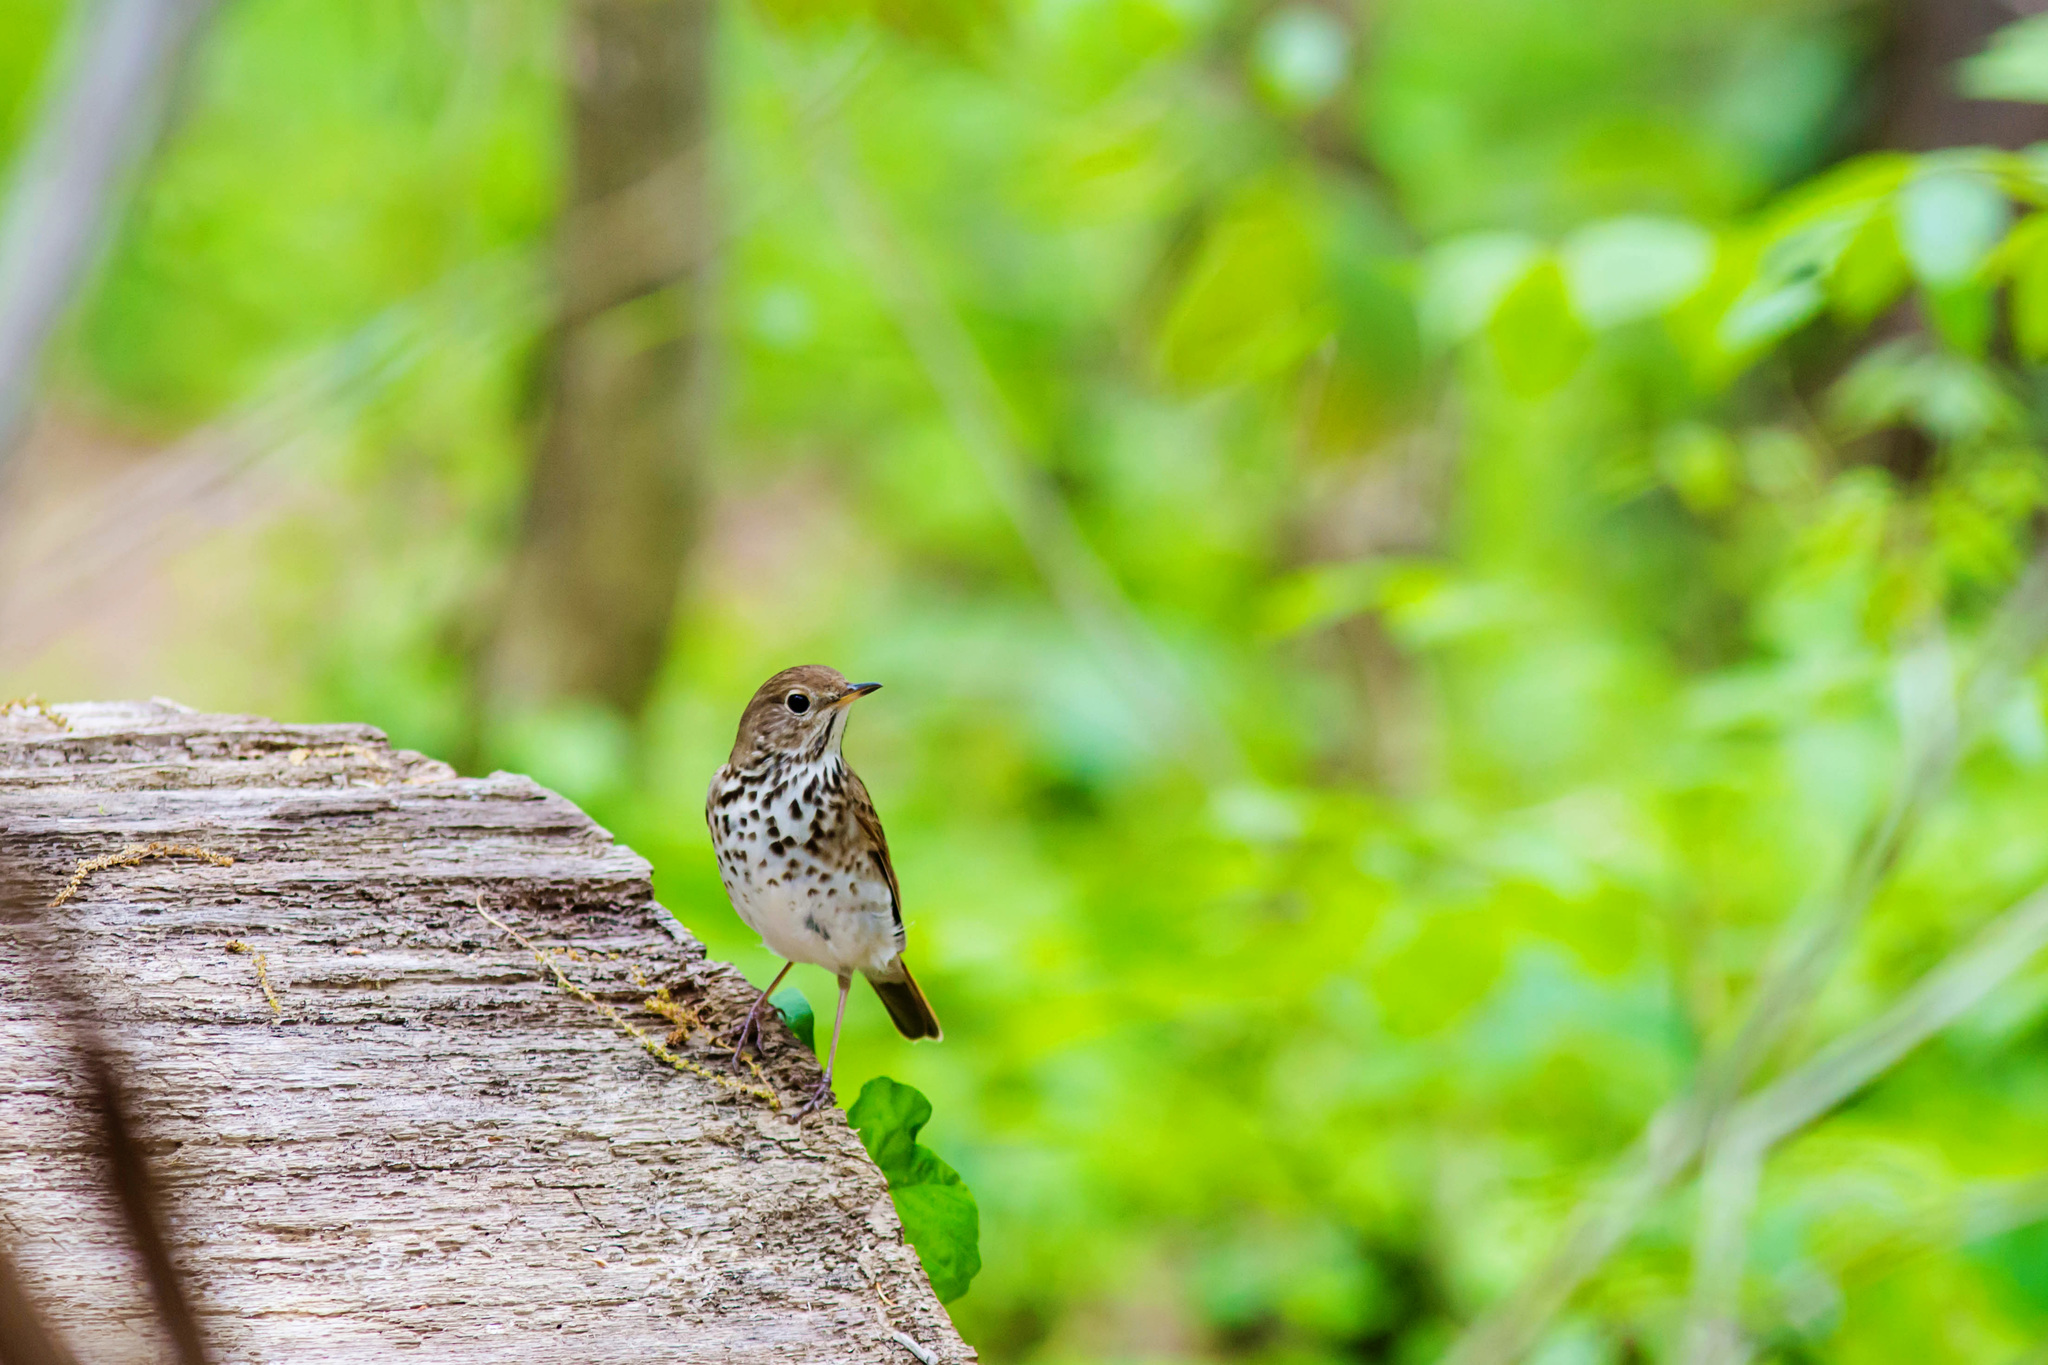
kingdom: Animalia
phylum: Chordata
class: Aves
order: Passeriformes
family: Turdidae
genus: Catharus
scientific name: Catharus guttatus
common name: Hermit thrush
